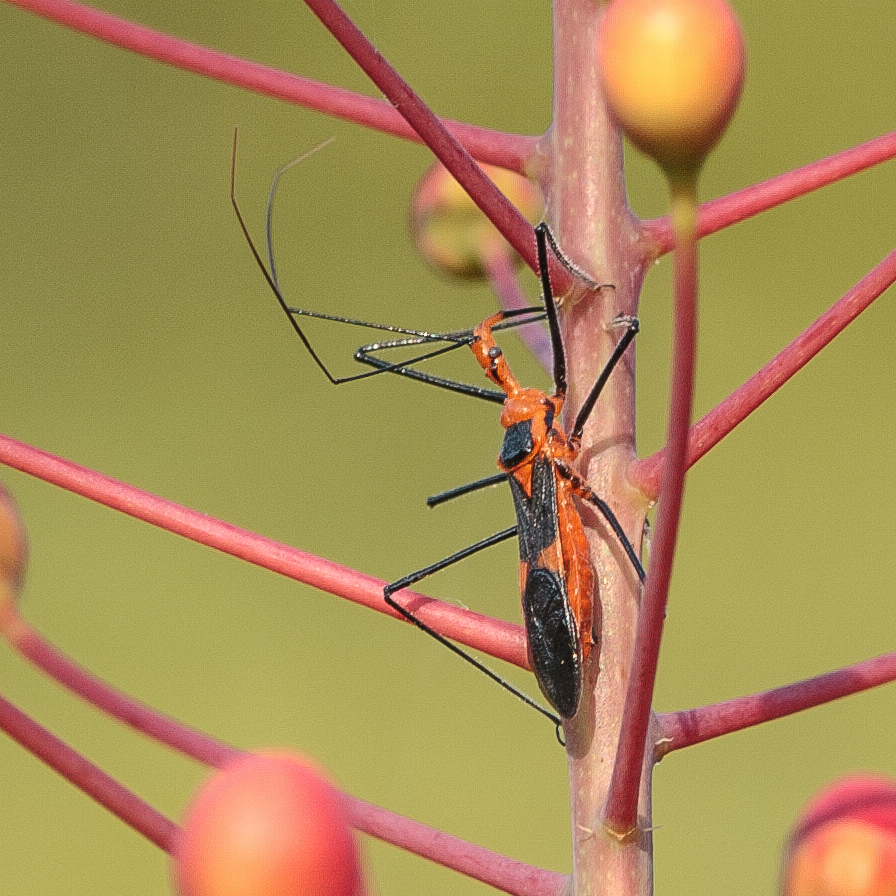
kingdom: Animalia
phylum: Arthropoda
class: Insecta
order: Hemiptera
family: Reduviidae
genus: Zelus
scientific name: Zelus longipes
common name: Milkweed assassin bug
